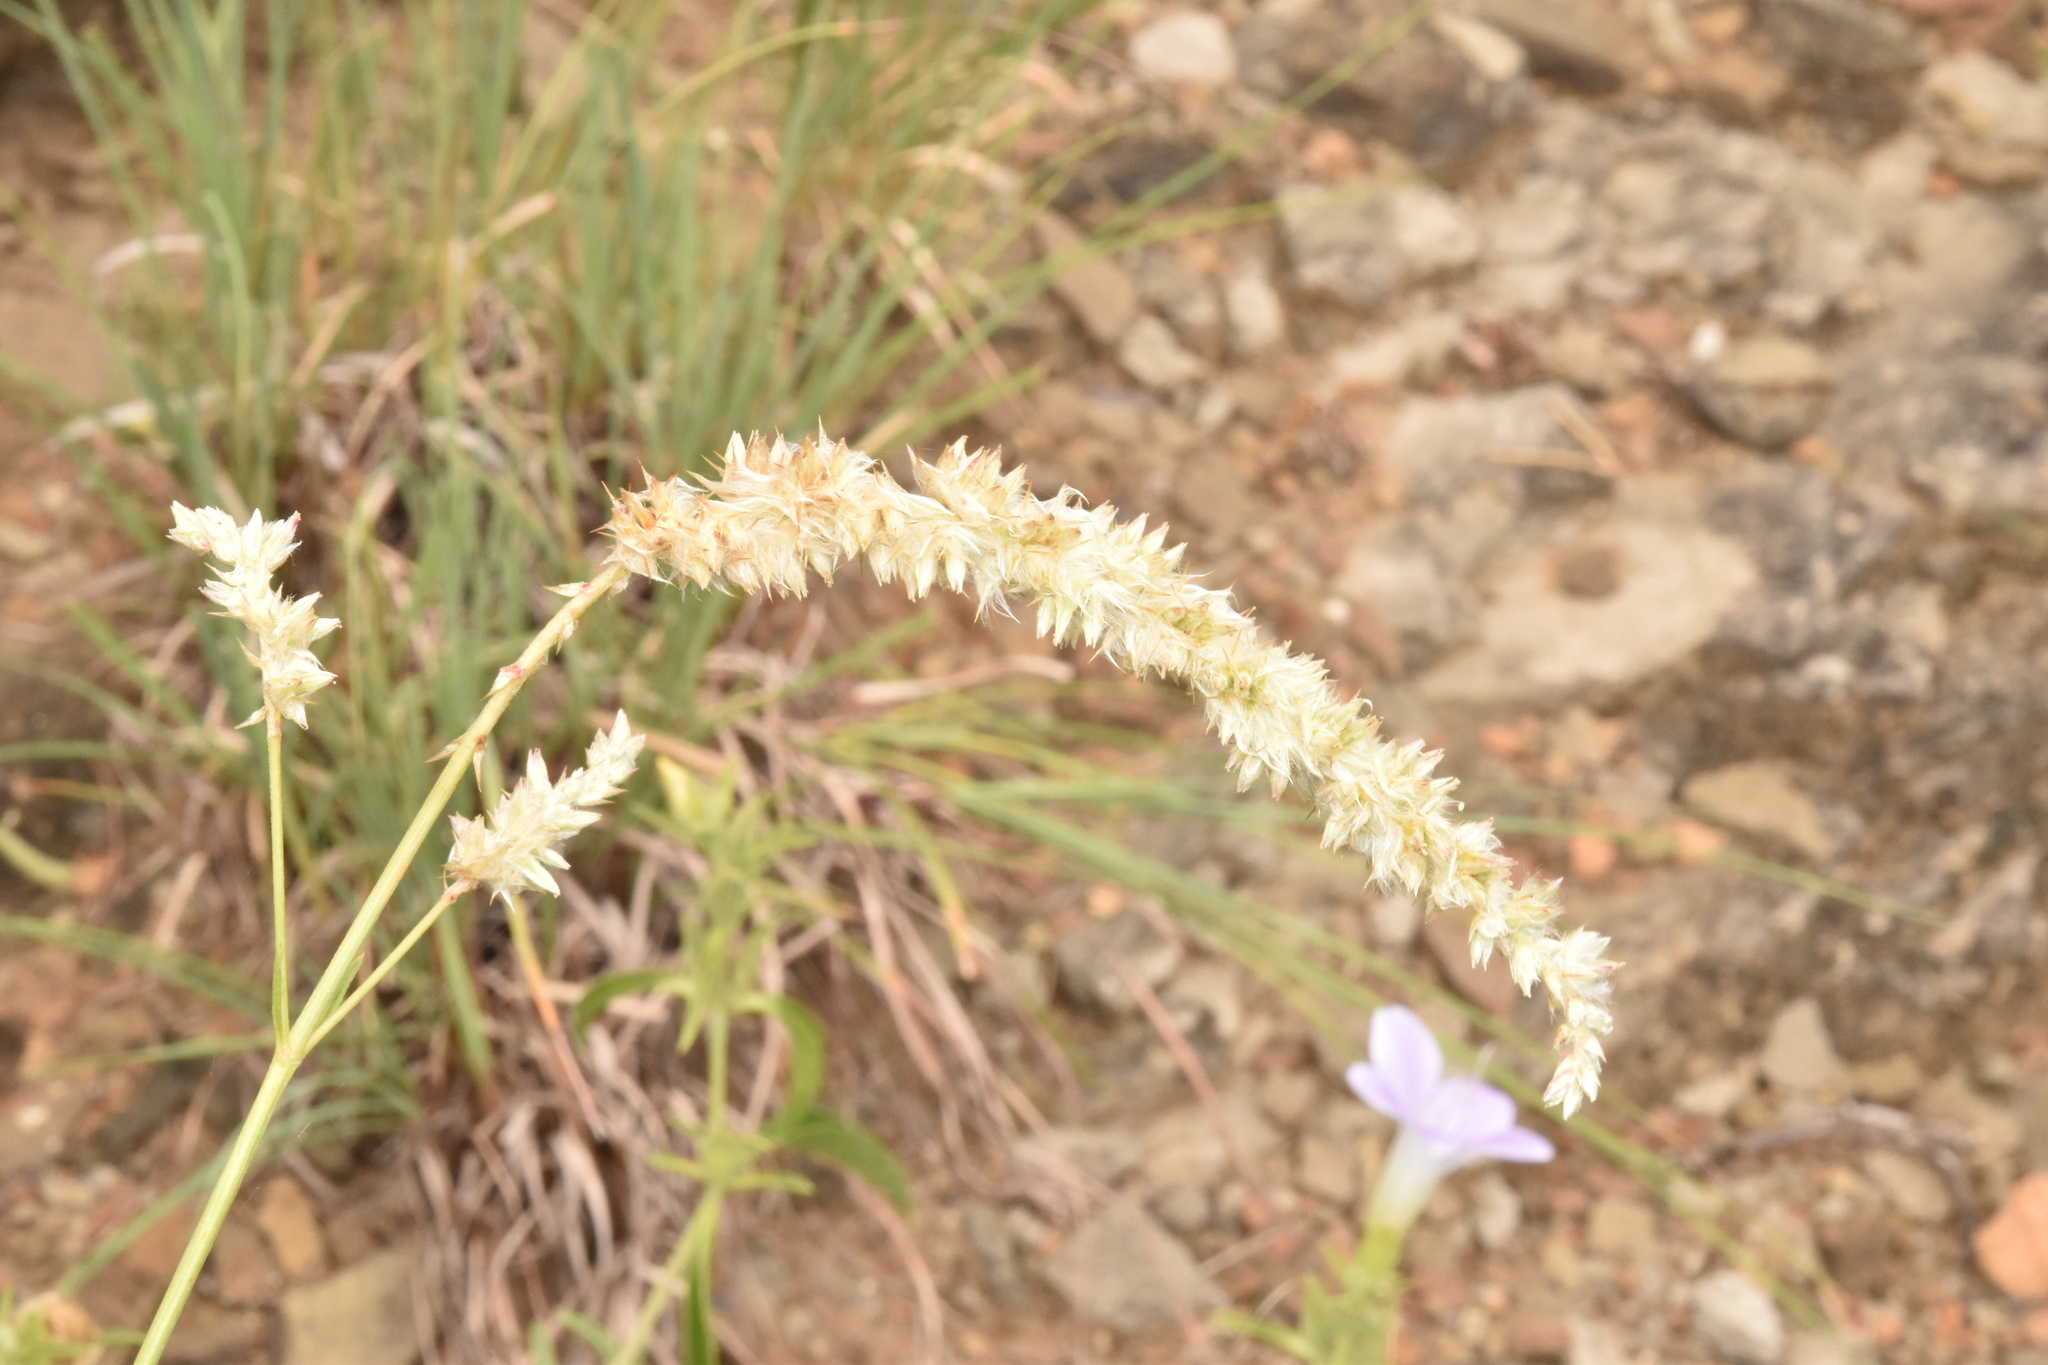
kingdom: Plantae
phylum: Tracheophyta
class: Magnoliopsida
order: Caryophyllales
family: Amaranthaceae
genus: Cyphocarpa
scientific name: Cyphocarpa angustifolia
